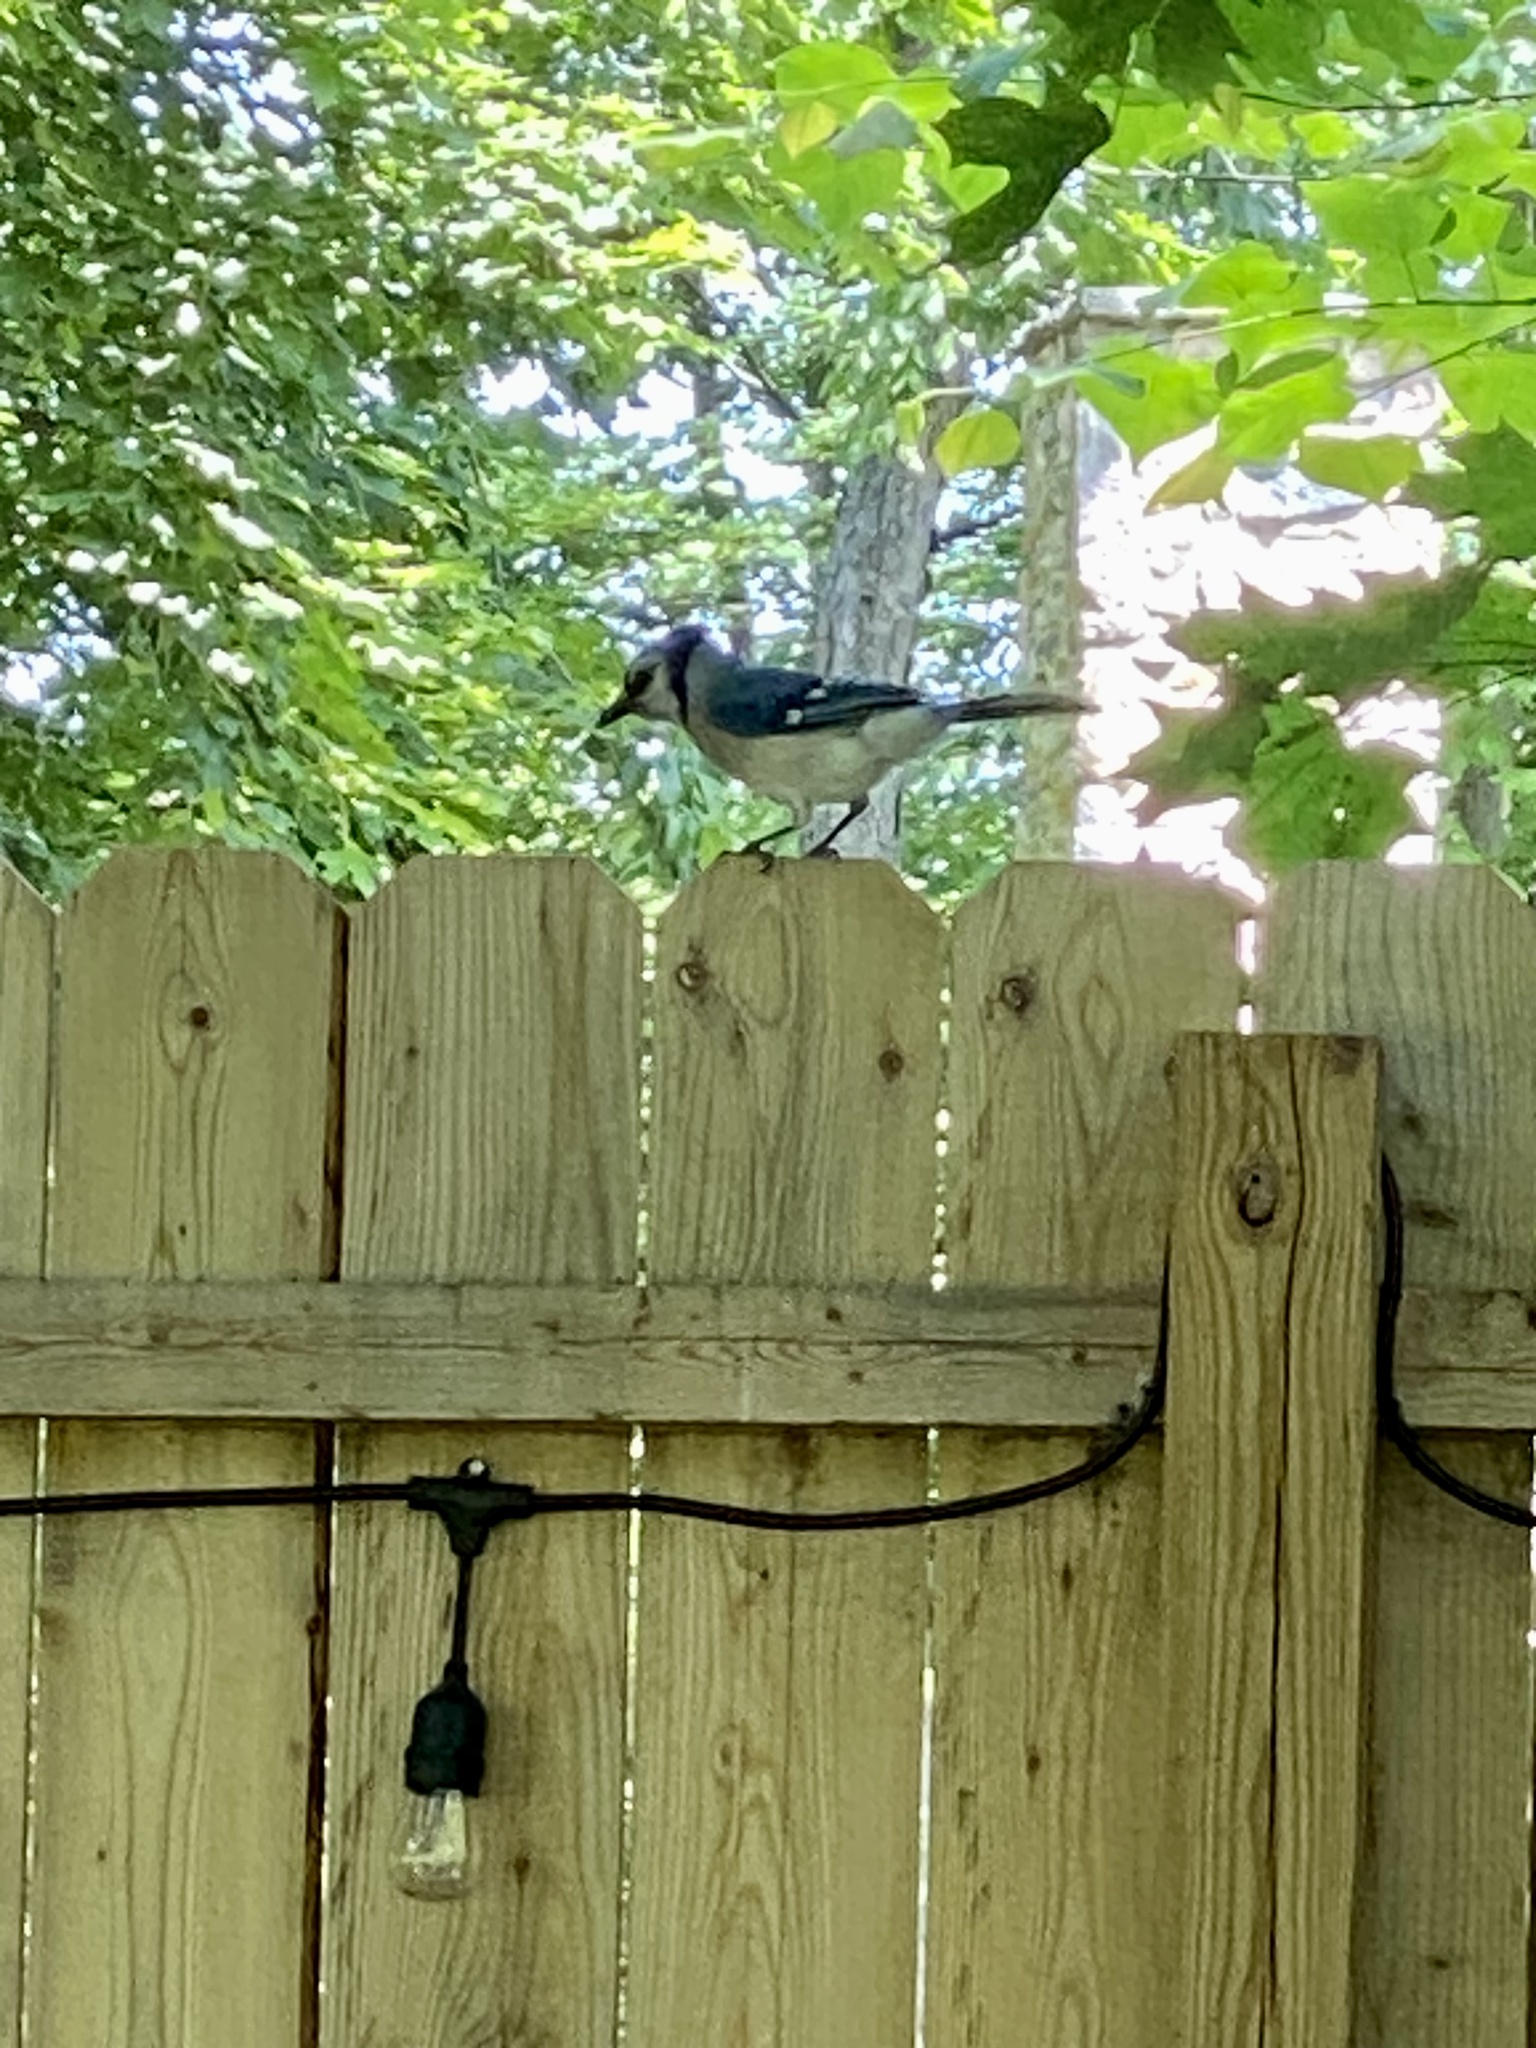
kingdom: Animalia
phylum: Chordata
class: Aves
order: Passeriformes
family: Corvidae
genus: Cyanocitta
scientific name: Cyanocitta cristata
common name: Blue jay
